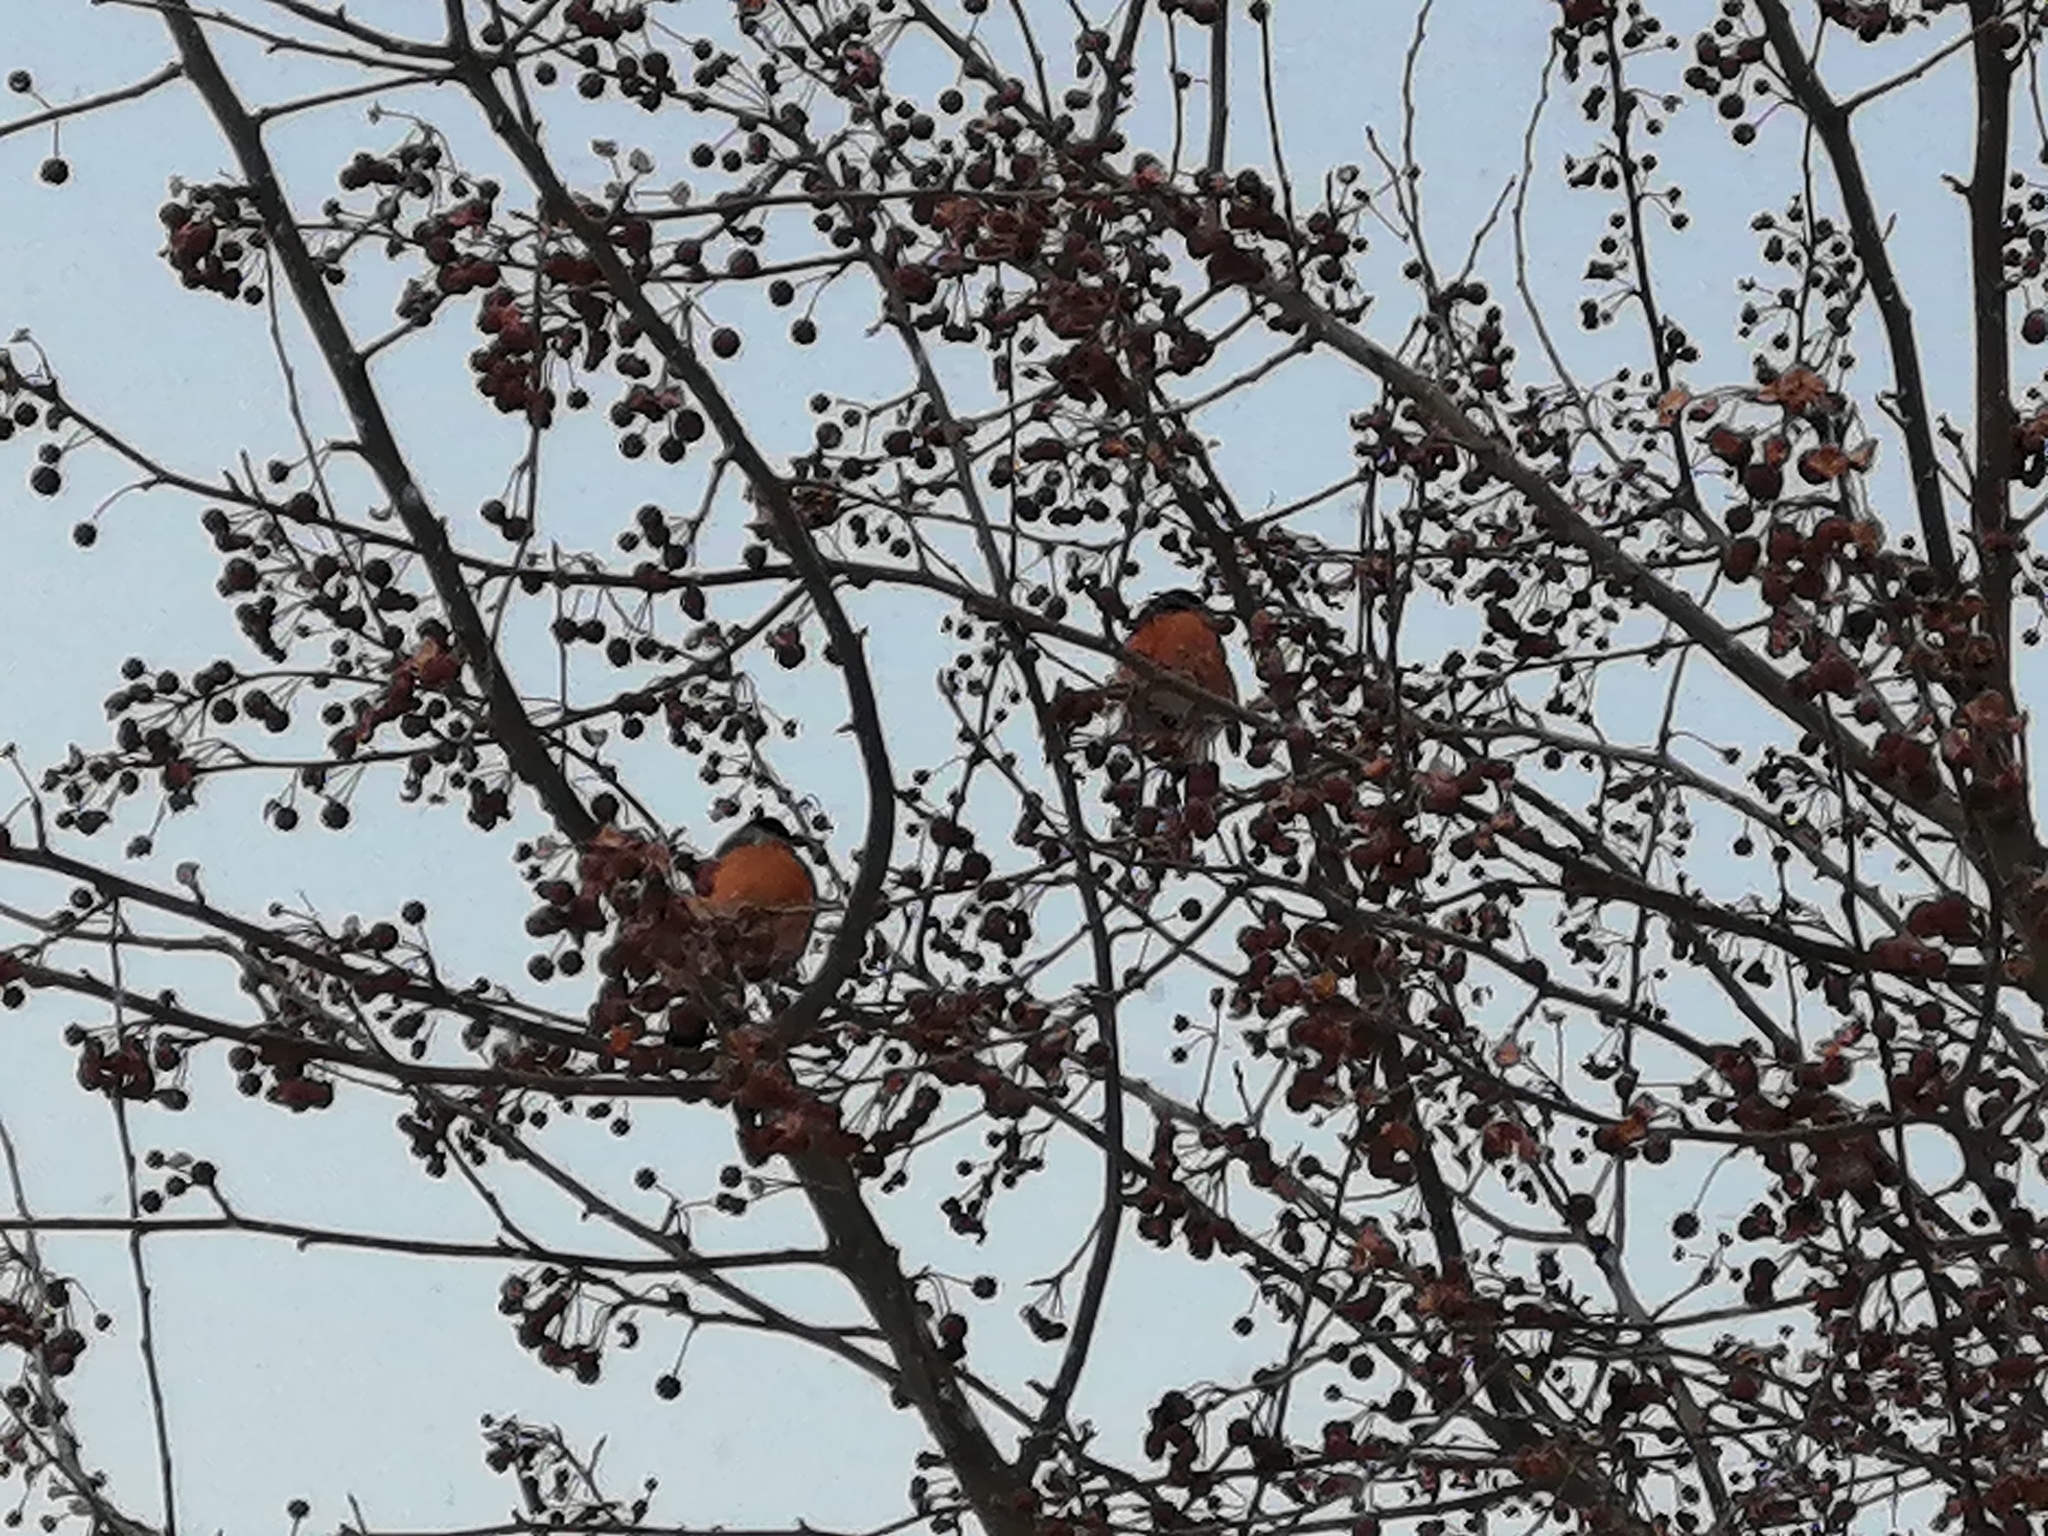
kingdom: Animalia
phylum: Chordata
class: Aves
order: Passeriformes
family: Fringillidae
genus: Pyrrhula
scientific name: Pyrrhula pyrrhula
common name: Eurasian bullfinch
